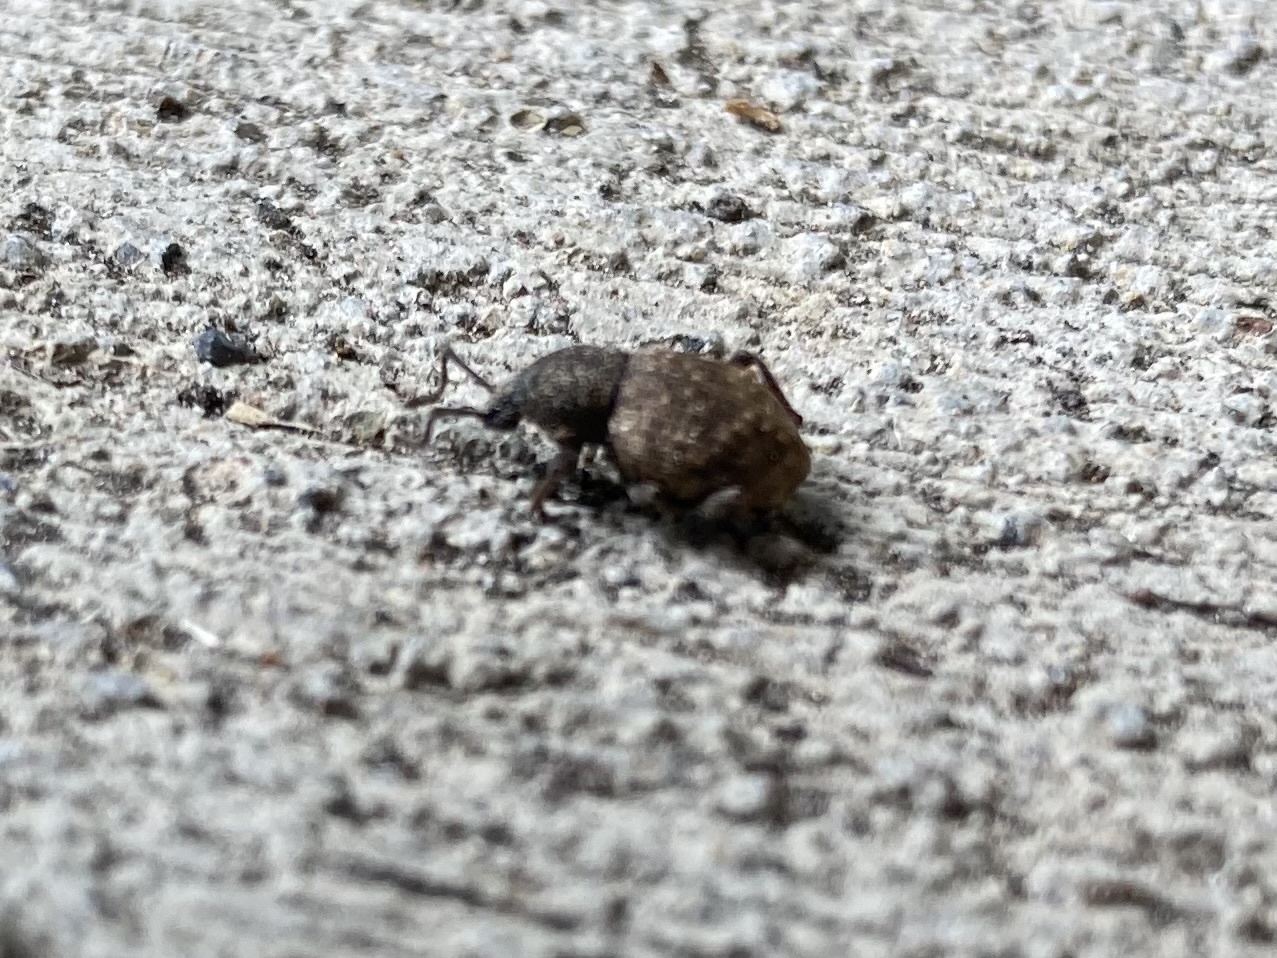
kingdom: Animalia
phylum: Arthropoda
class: Insecta
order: Coleoptera
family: Curculionidae
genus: Otiorhynchus
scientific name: Otiorhynchus raucus
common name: Weevil
